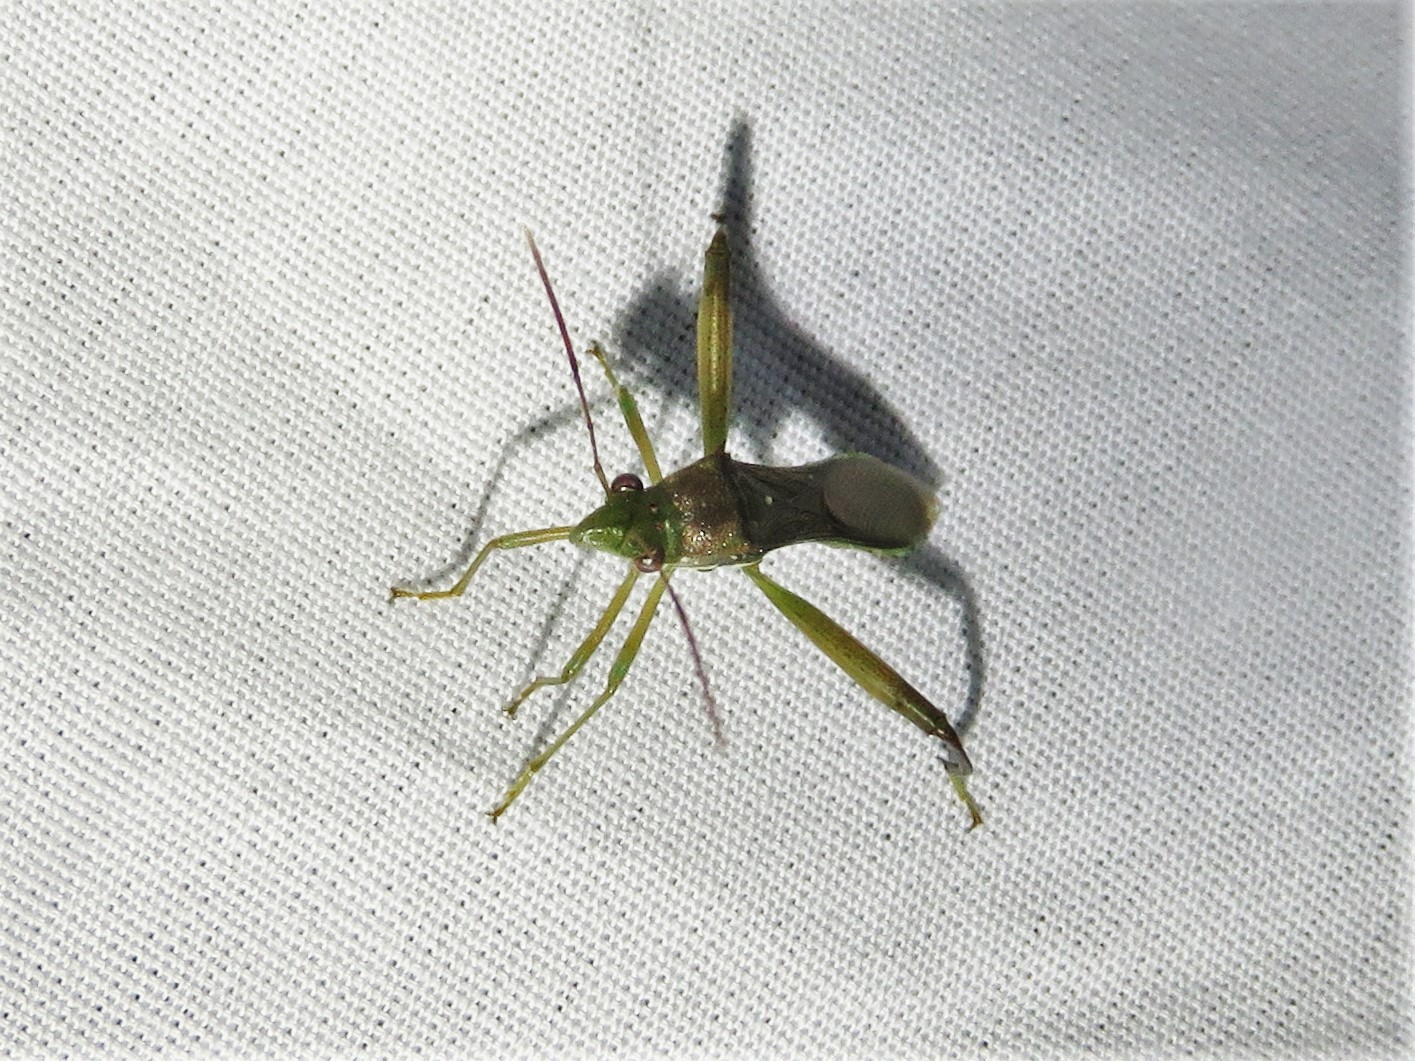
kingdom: Animalia
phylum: Arthropoda
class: Insecta
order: Hemiptera
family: Alydidae
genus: Hyalymenus
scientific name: Hyalymenus tarsatus
